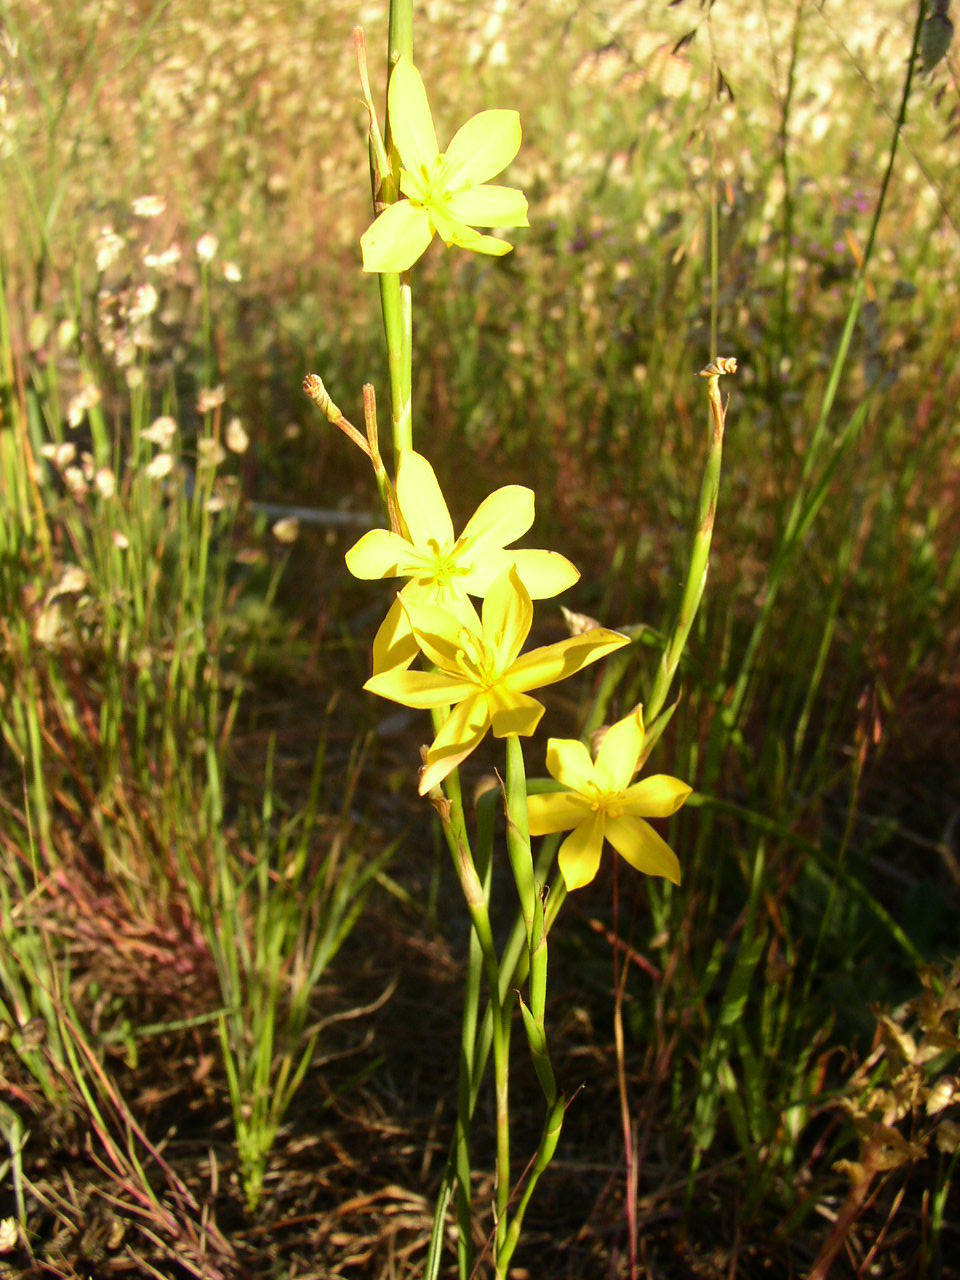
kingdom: Plantae
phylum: Tracheophyta
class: Liliopsida
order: Asparagales
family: Iridaceae
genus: Moraea
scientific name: Moraea collina
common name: Cape-tulip
